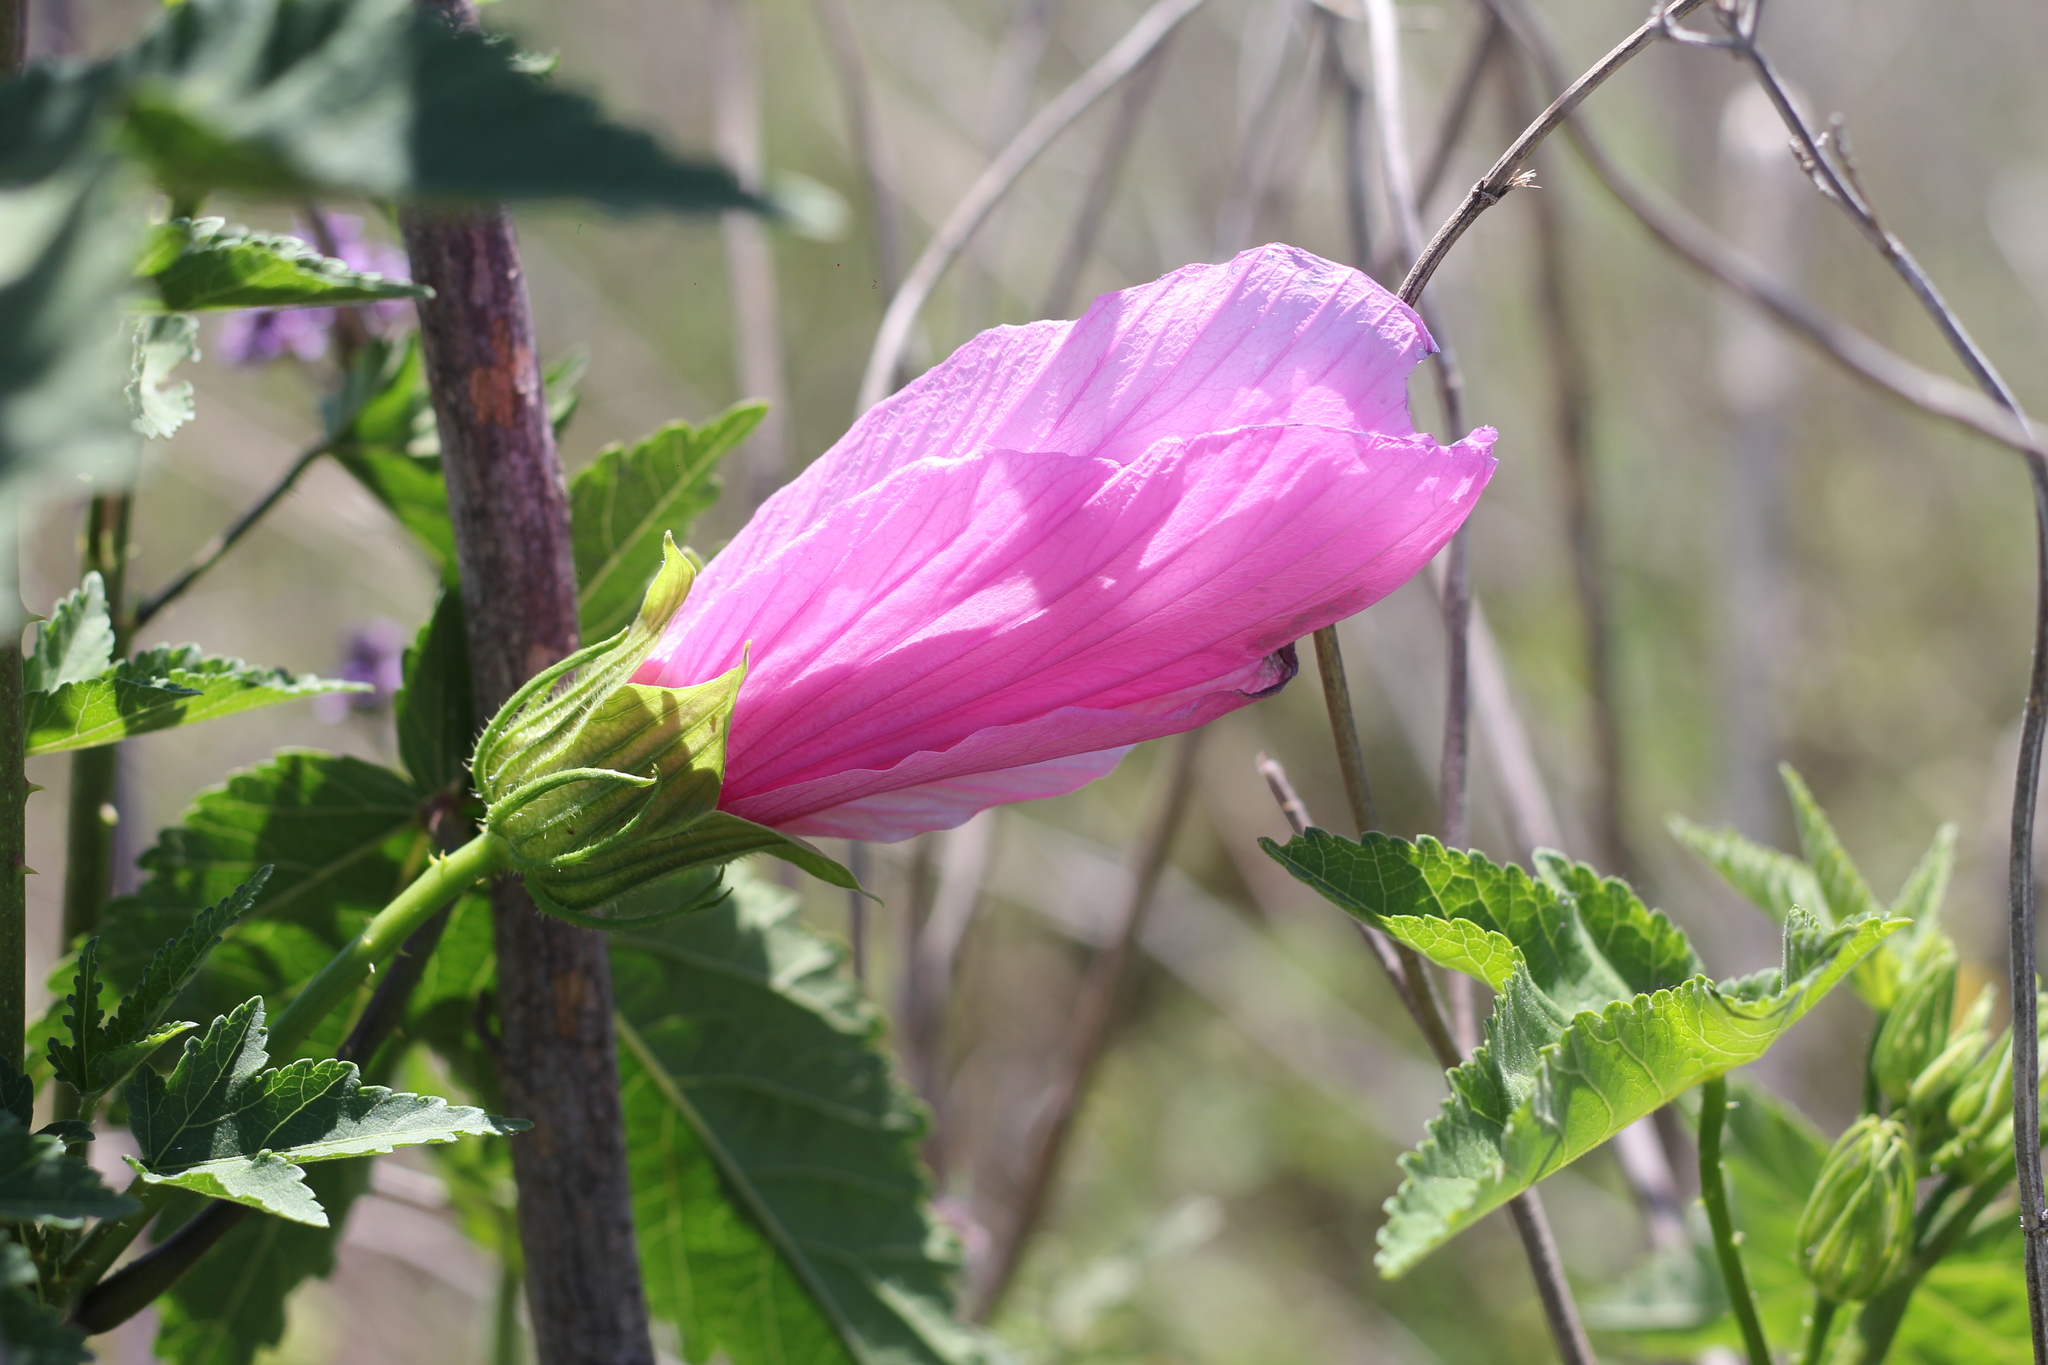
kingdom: Plantae
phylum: Tracheophyta
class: Magnoliopsida
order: Malvales
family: Malvaceae
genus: Hibiscus
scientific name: Hibiscus striatus
